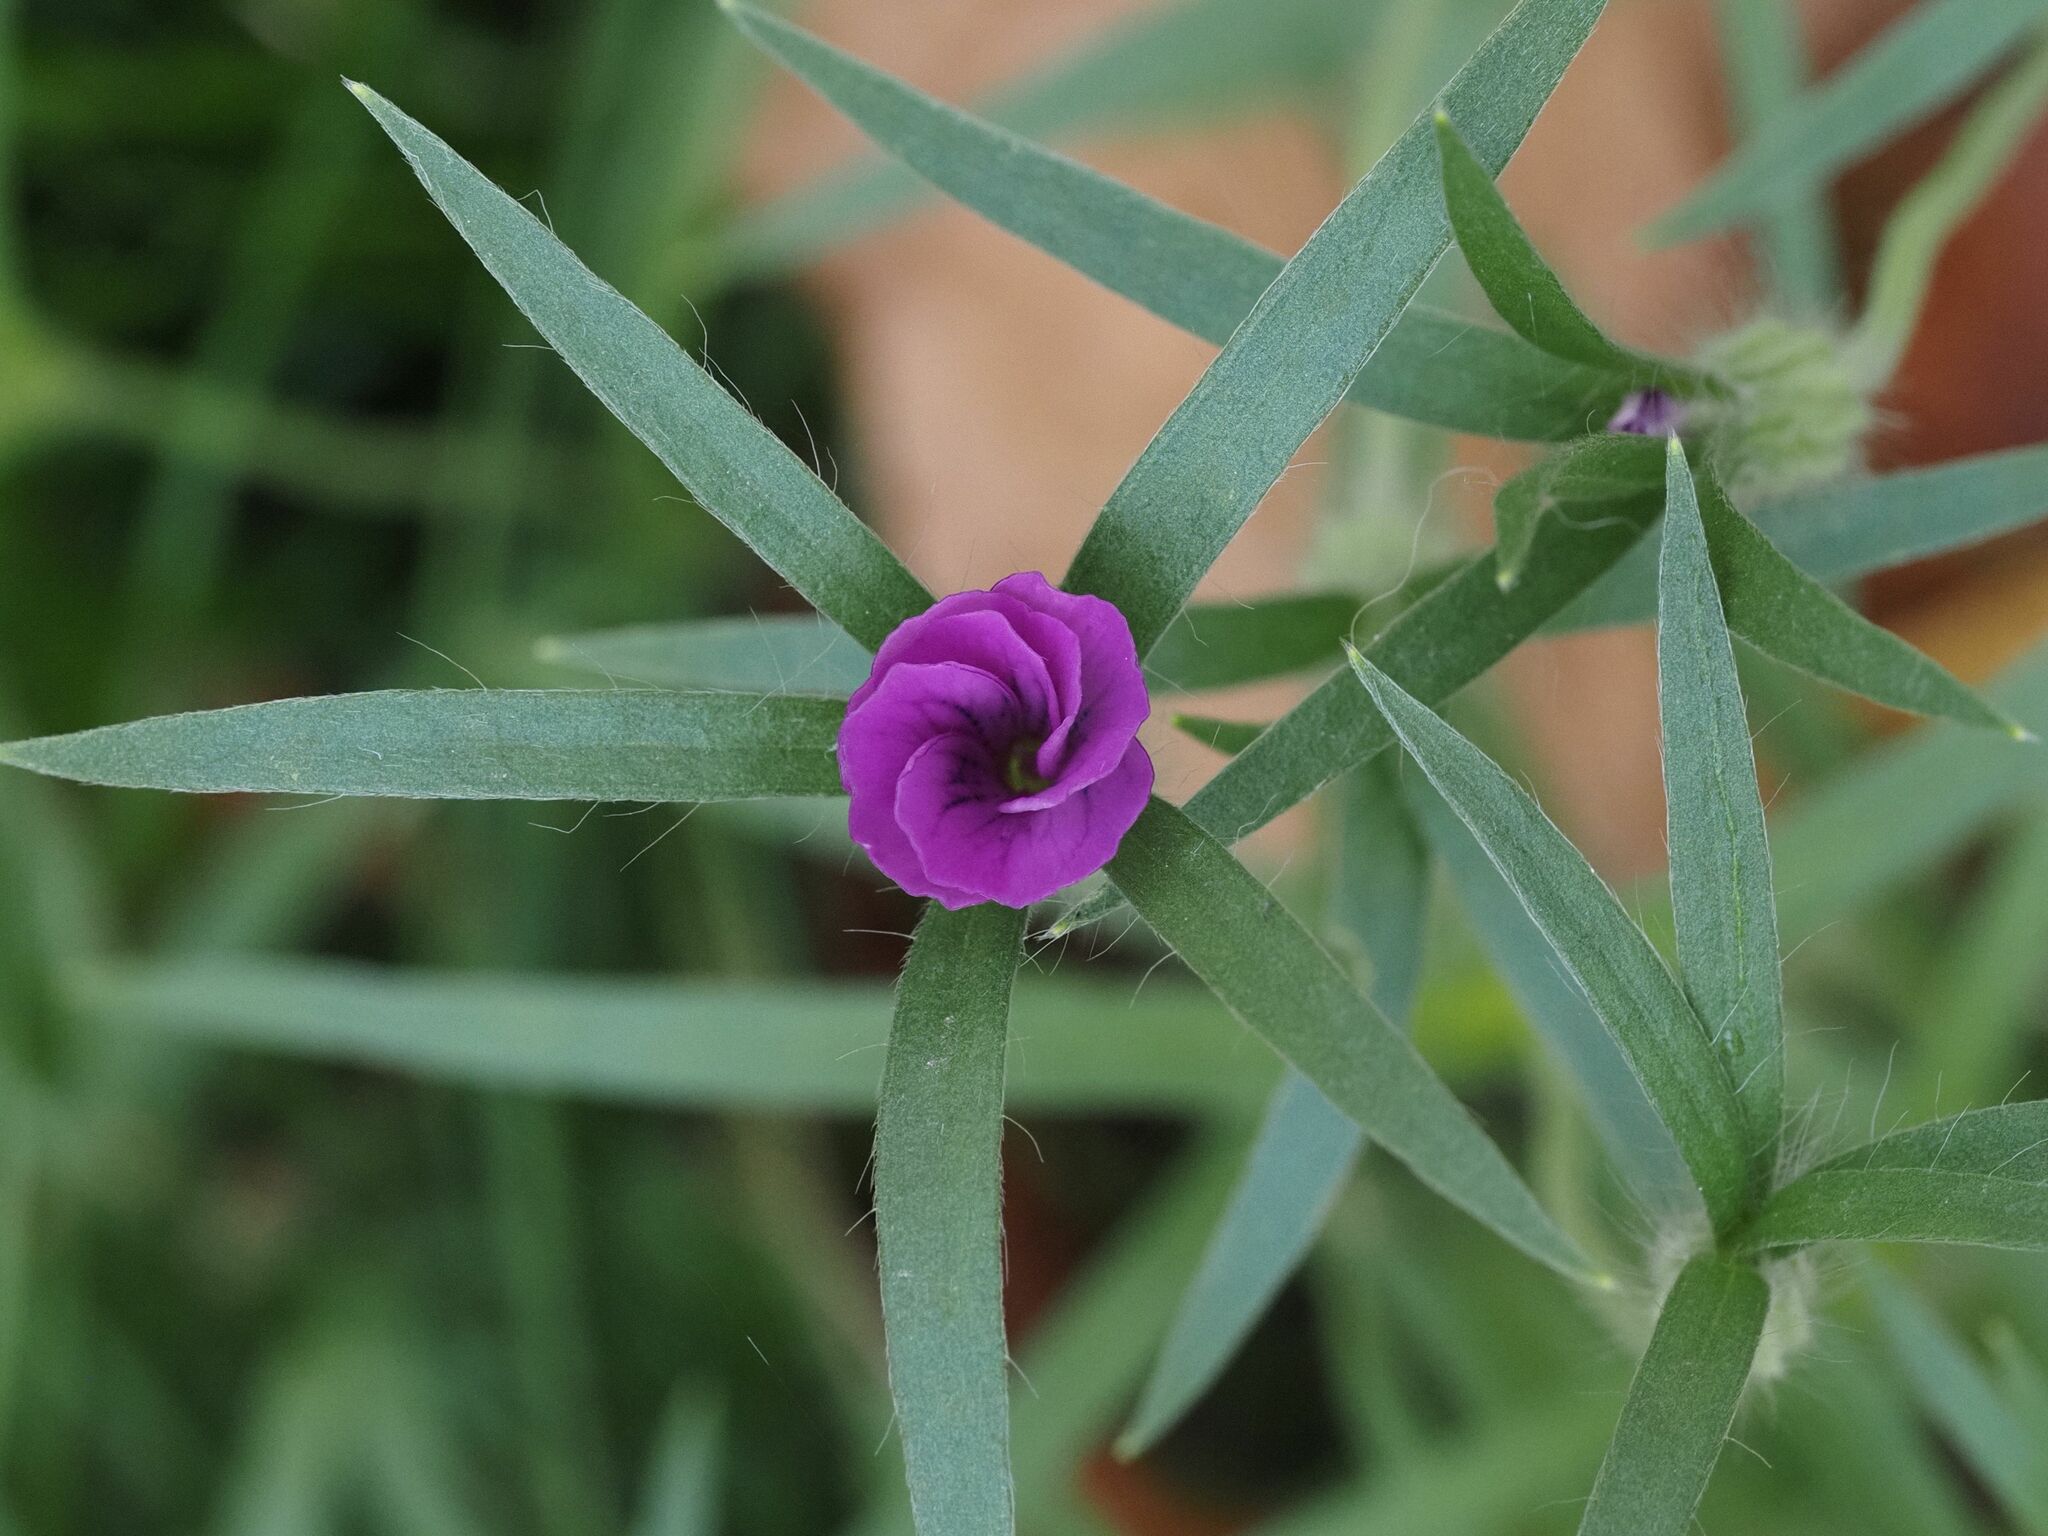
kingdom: Plantae
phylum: Tracheophyta
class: Magnoliopsida
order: Caryophyllales
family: Caryophyllaceae
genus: Agrostemma
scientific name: Agrostemma githago
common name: Common corncockle
